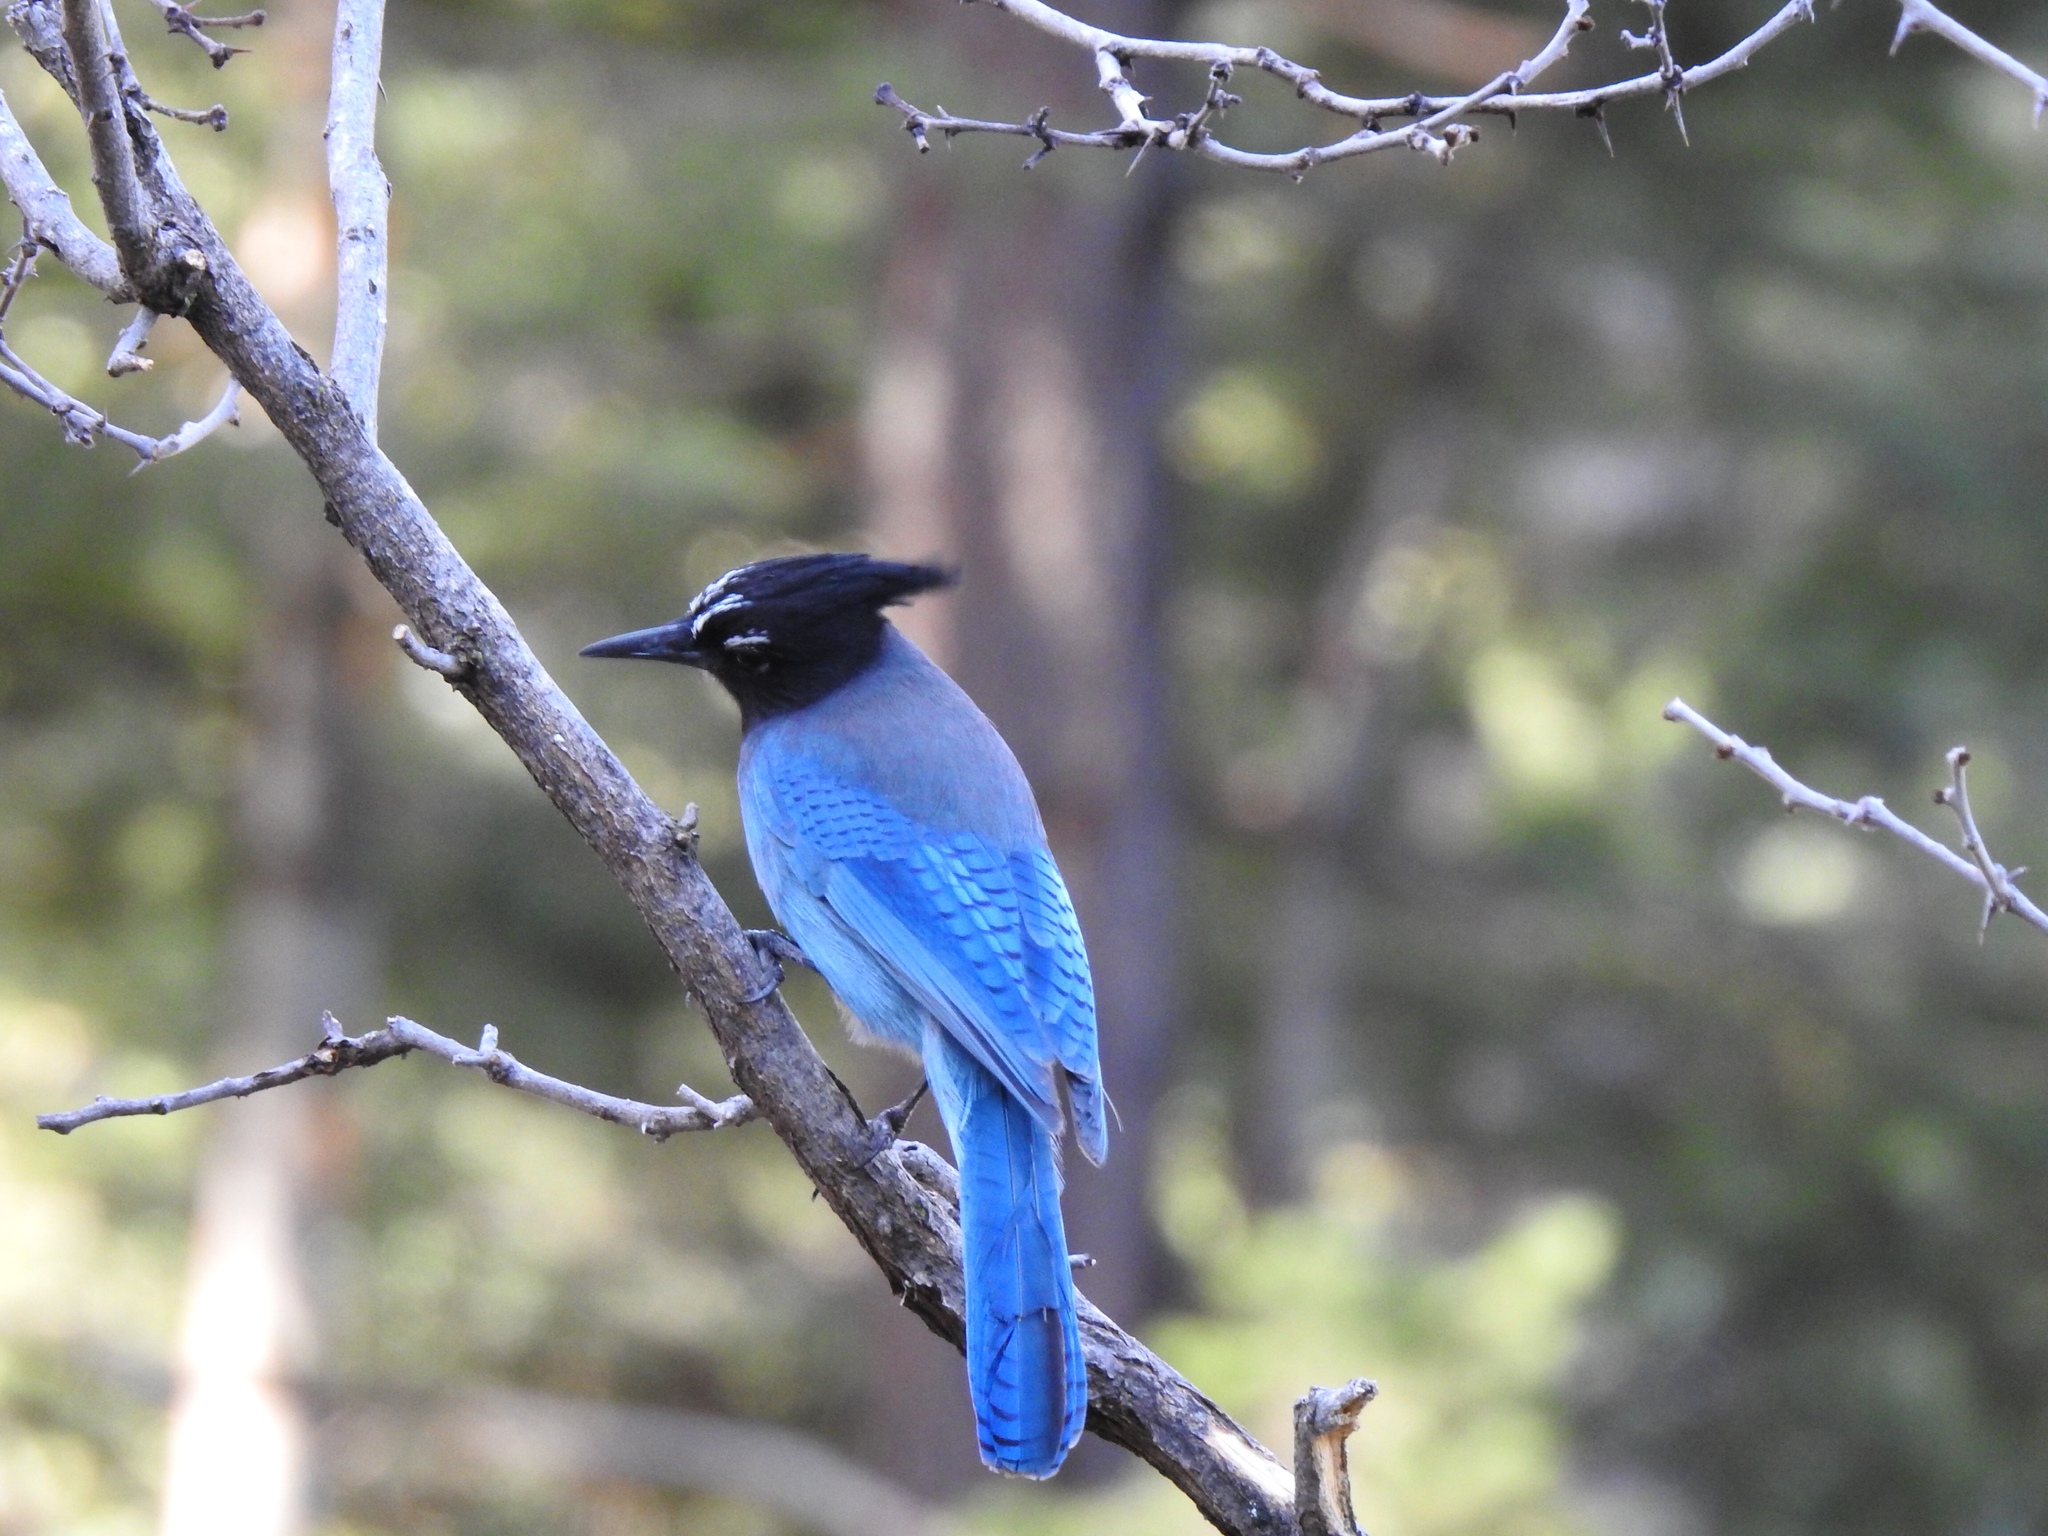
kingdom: Animalia
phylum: Chordata
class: Aves
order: Passeriformes
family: Corvidae
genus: Cyanocitta
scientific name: Cyanocitta stelleri
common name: Steller's jay
